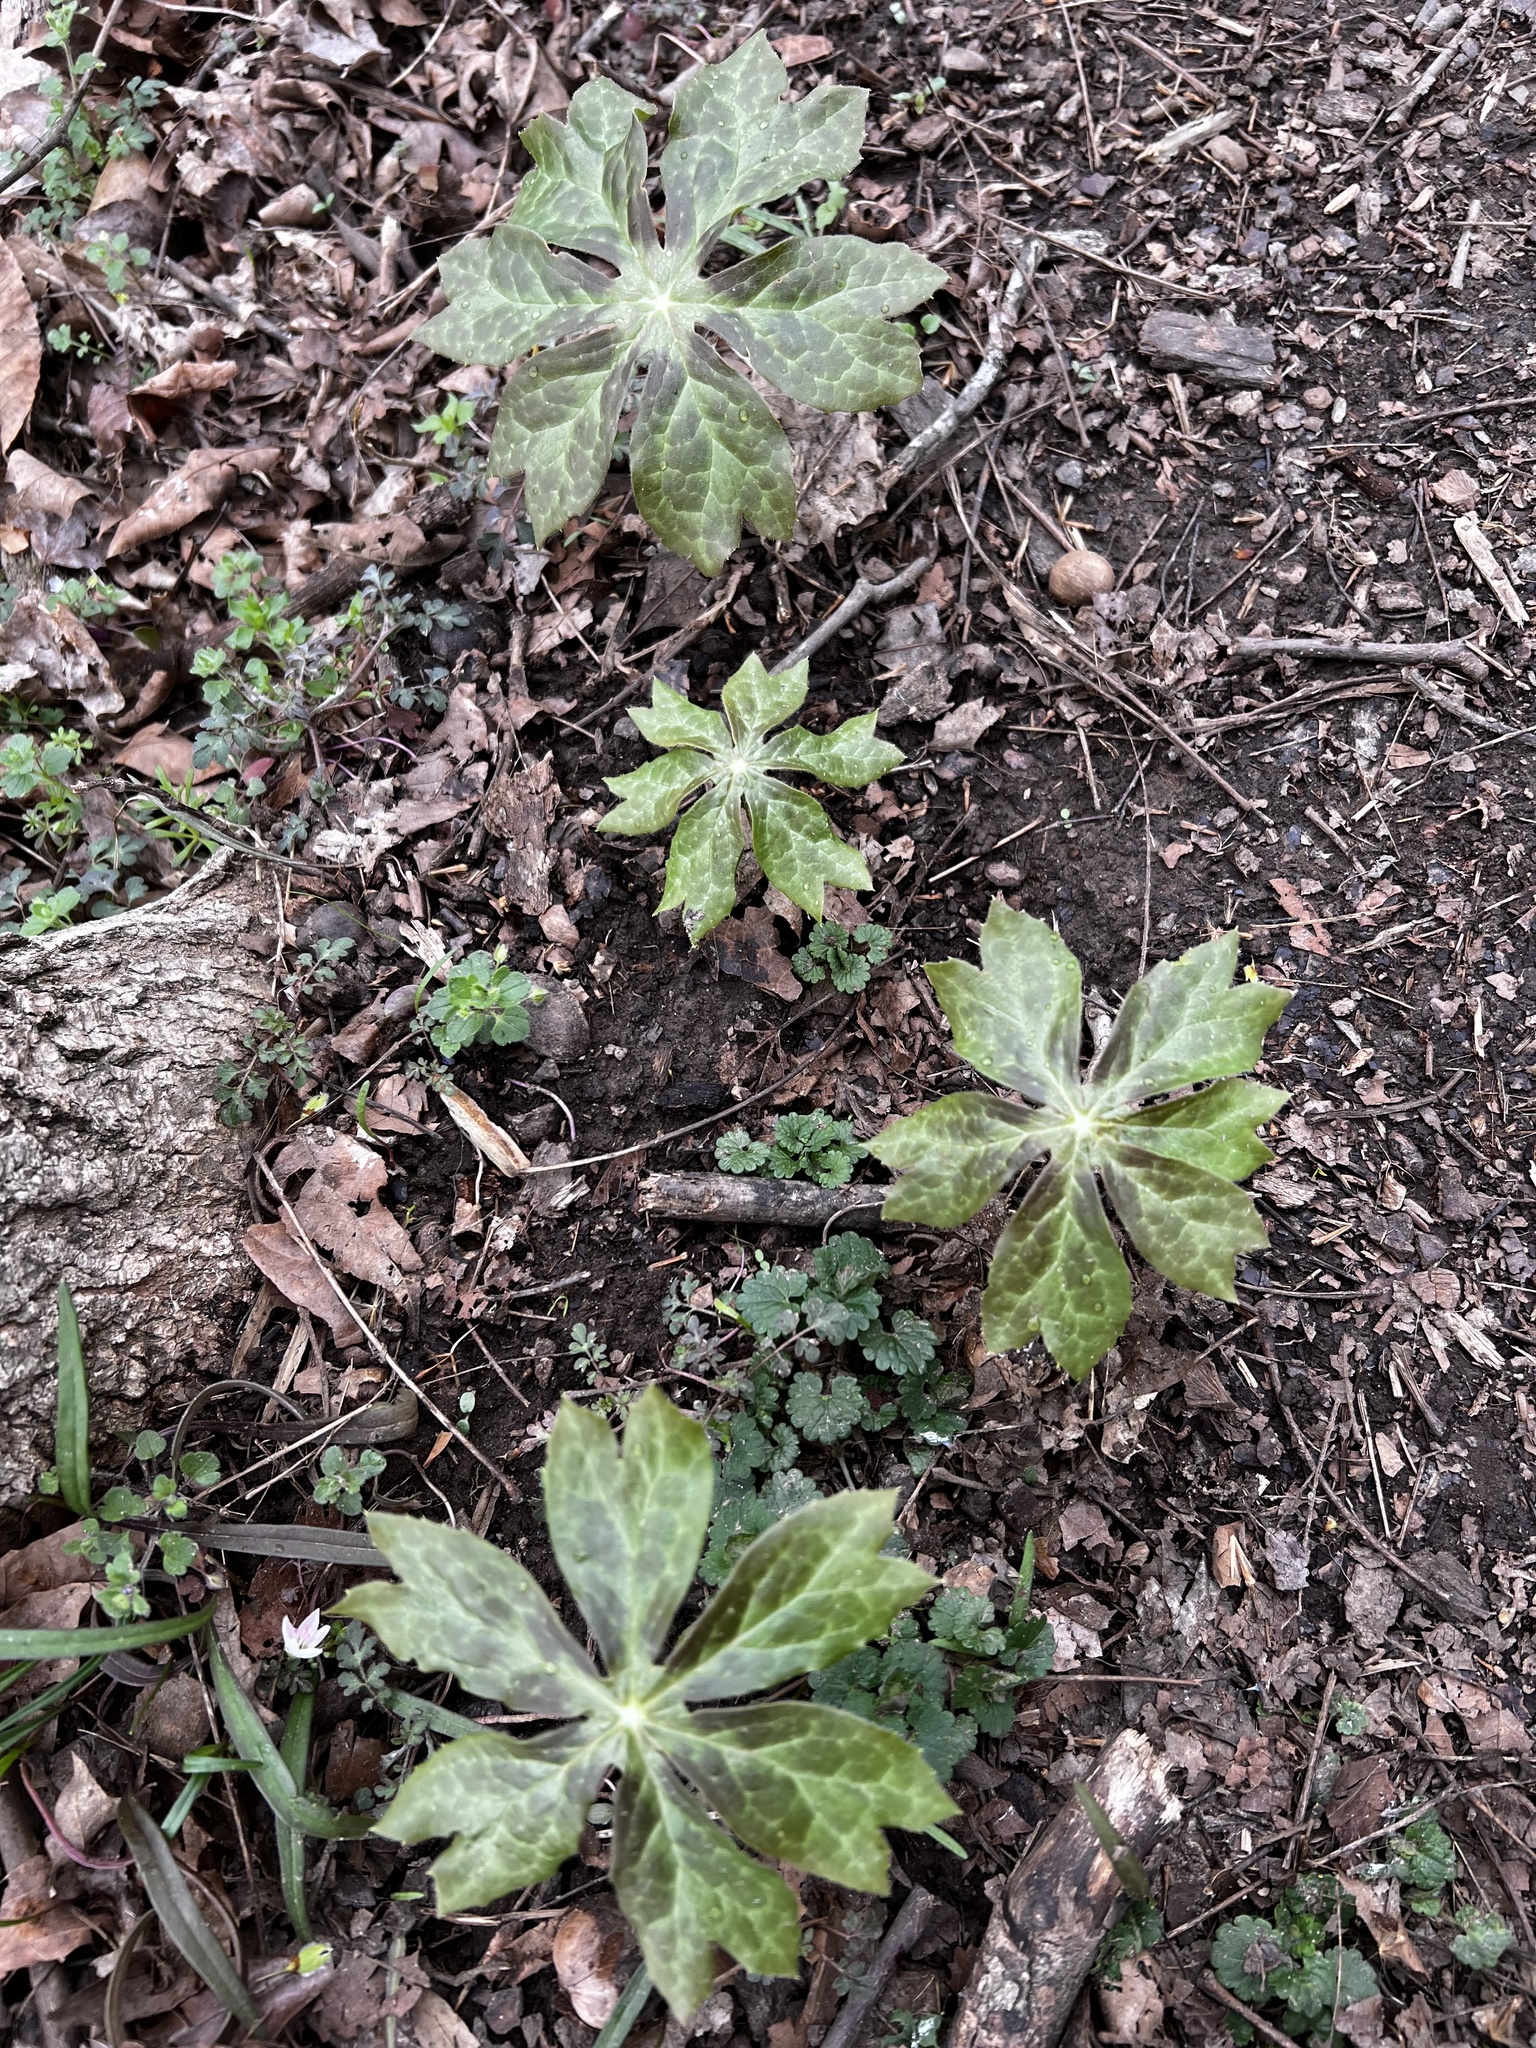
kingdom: Plantae
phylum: Tracheophyta
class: Magnoliopsida
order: Ranunculales
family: Berberidaceae
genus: Podophyllum
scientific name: Podophyllum peltatum
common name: Wild mandrake
